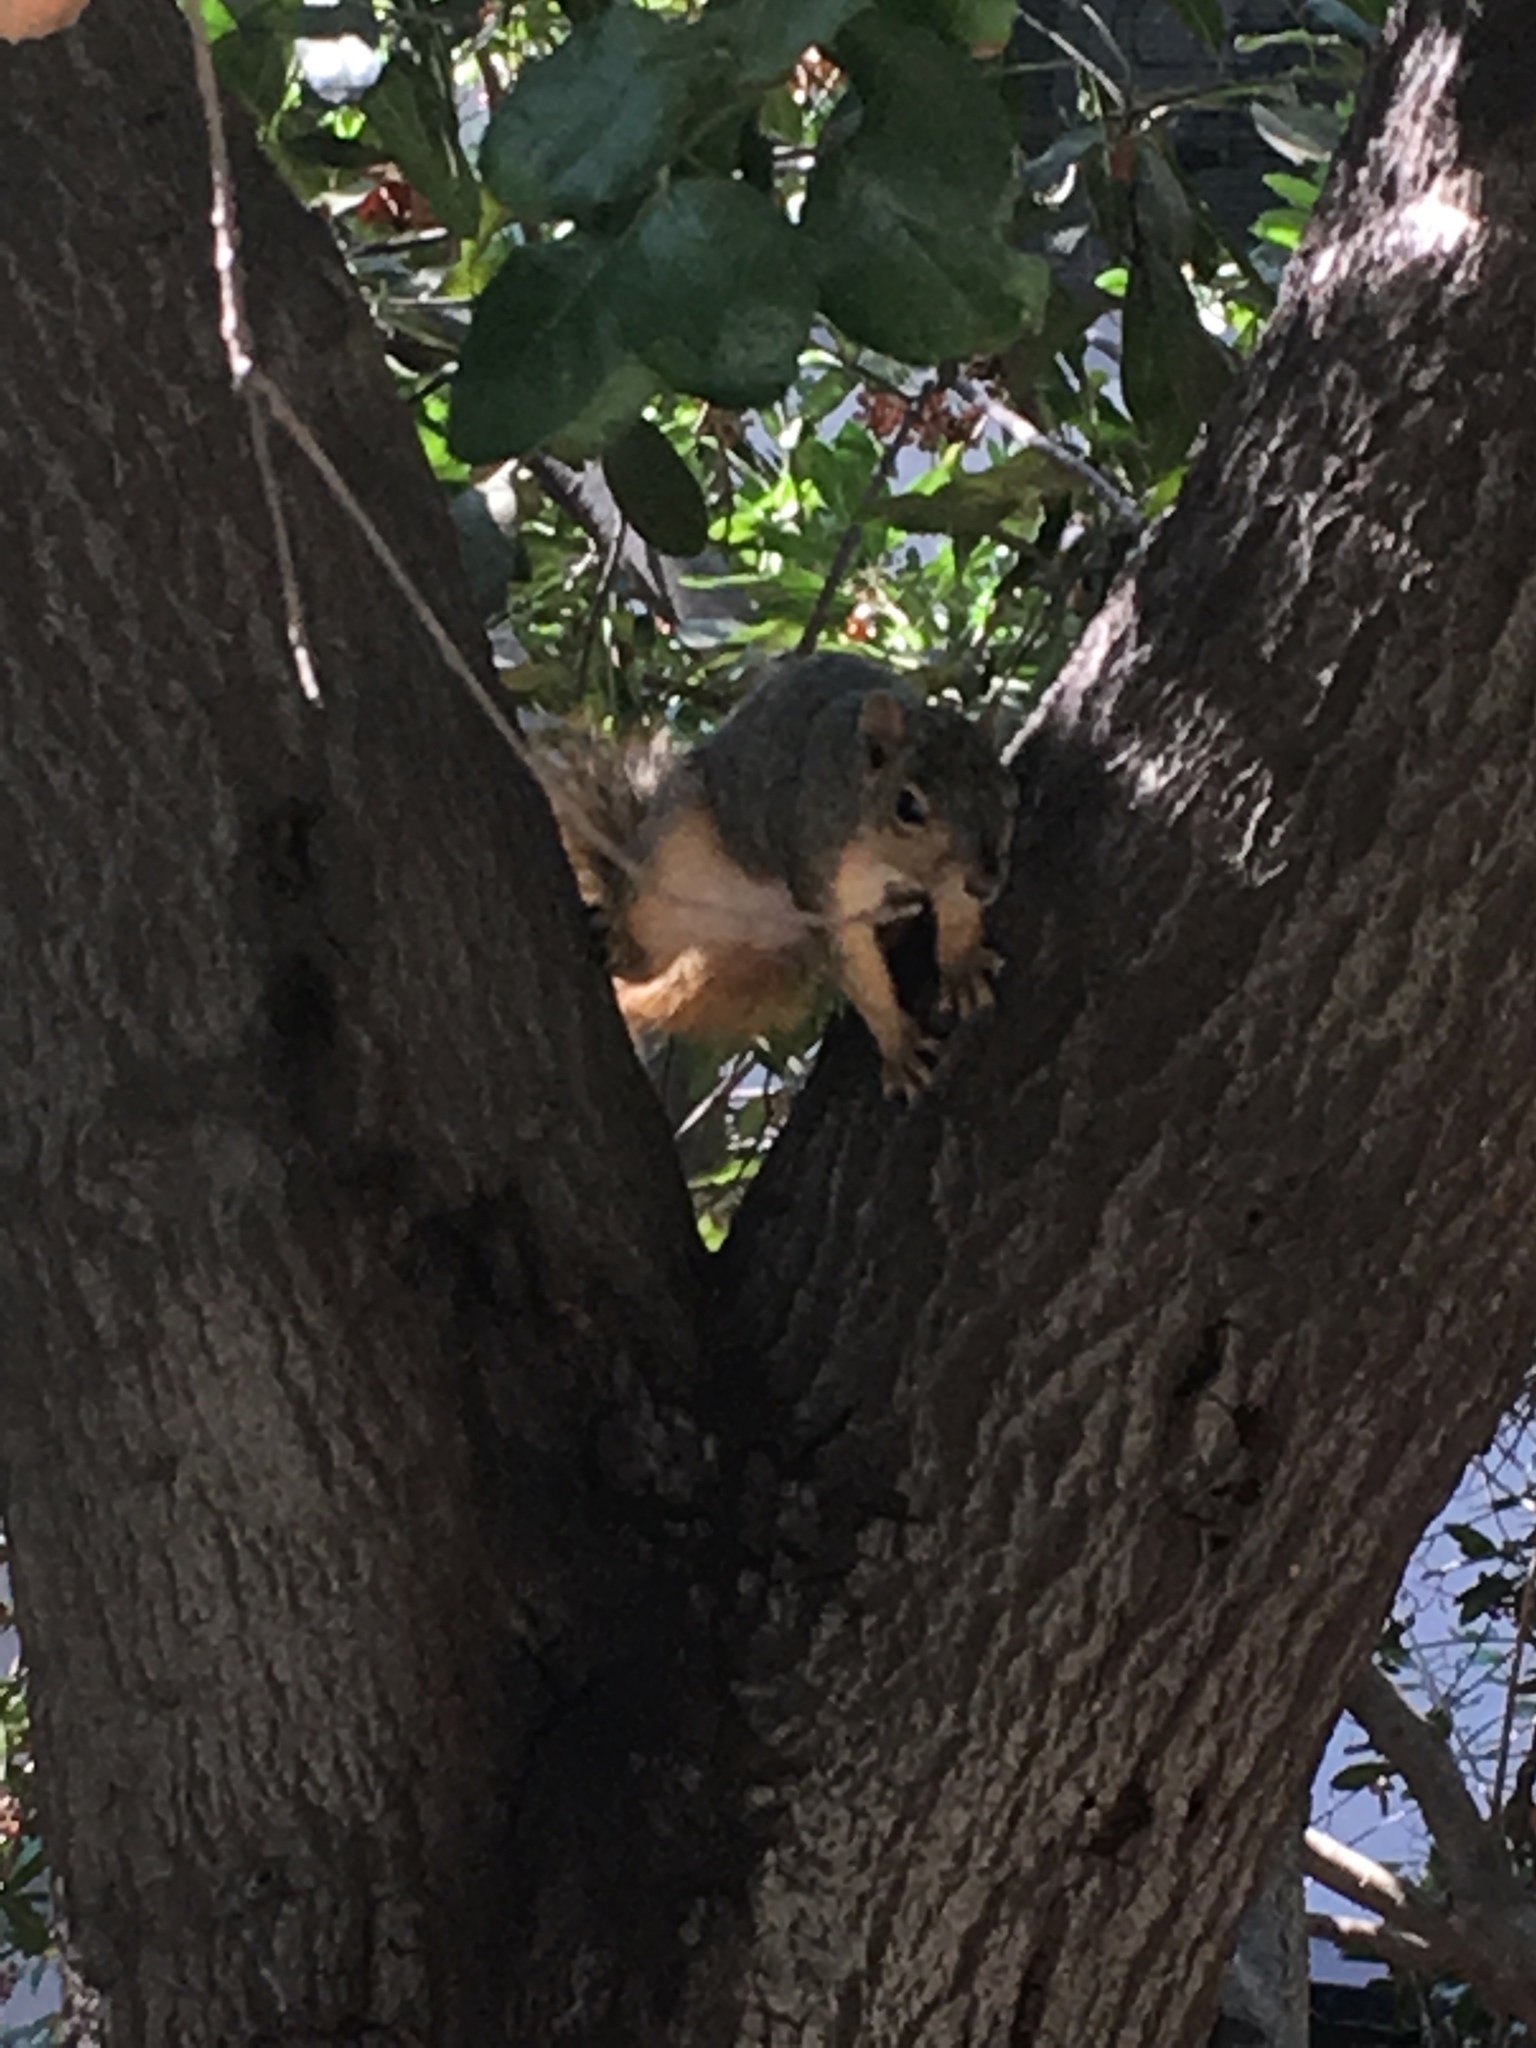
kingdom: Animalia
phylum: Chordata
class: Mammalia
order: Rodentia
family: Sciuridae
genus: Sciurus
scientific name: Sciurus niger
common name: Fox squirrel
